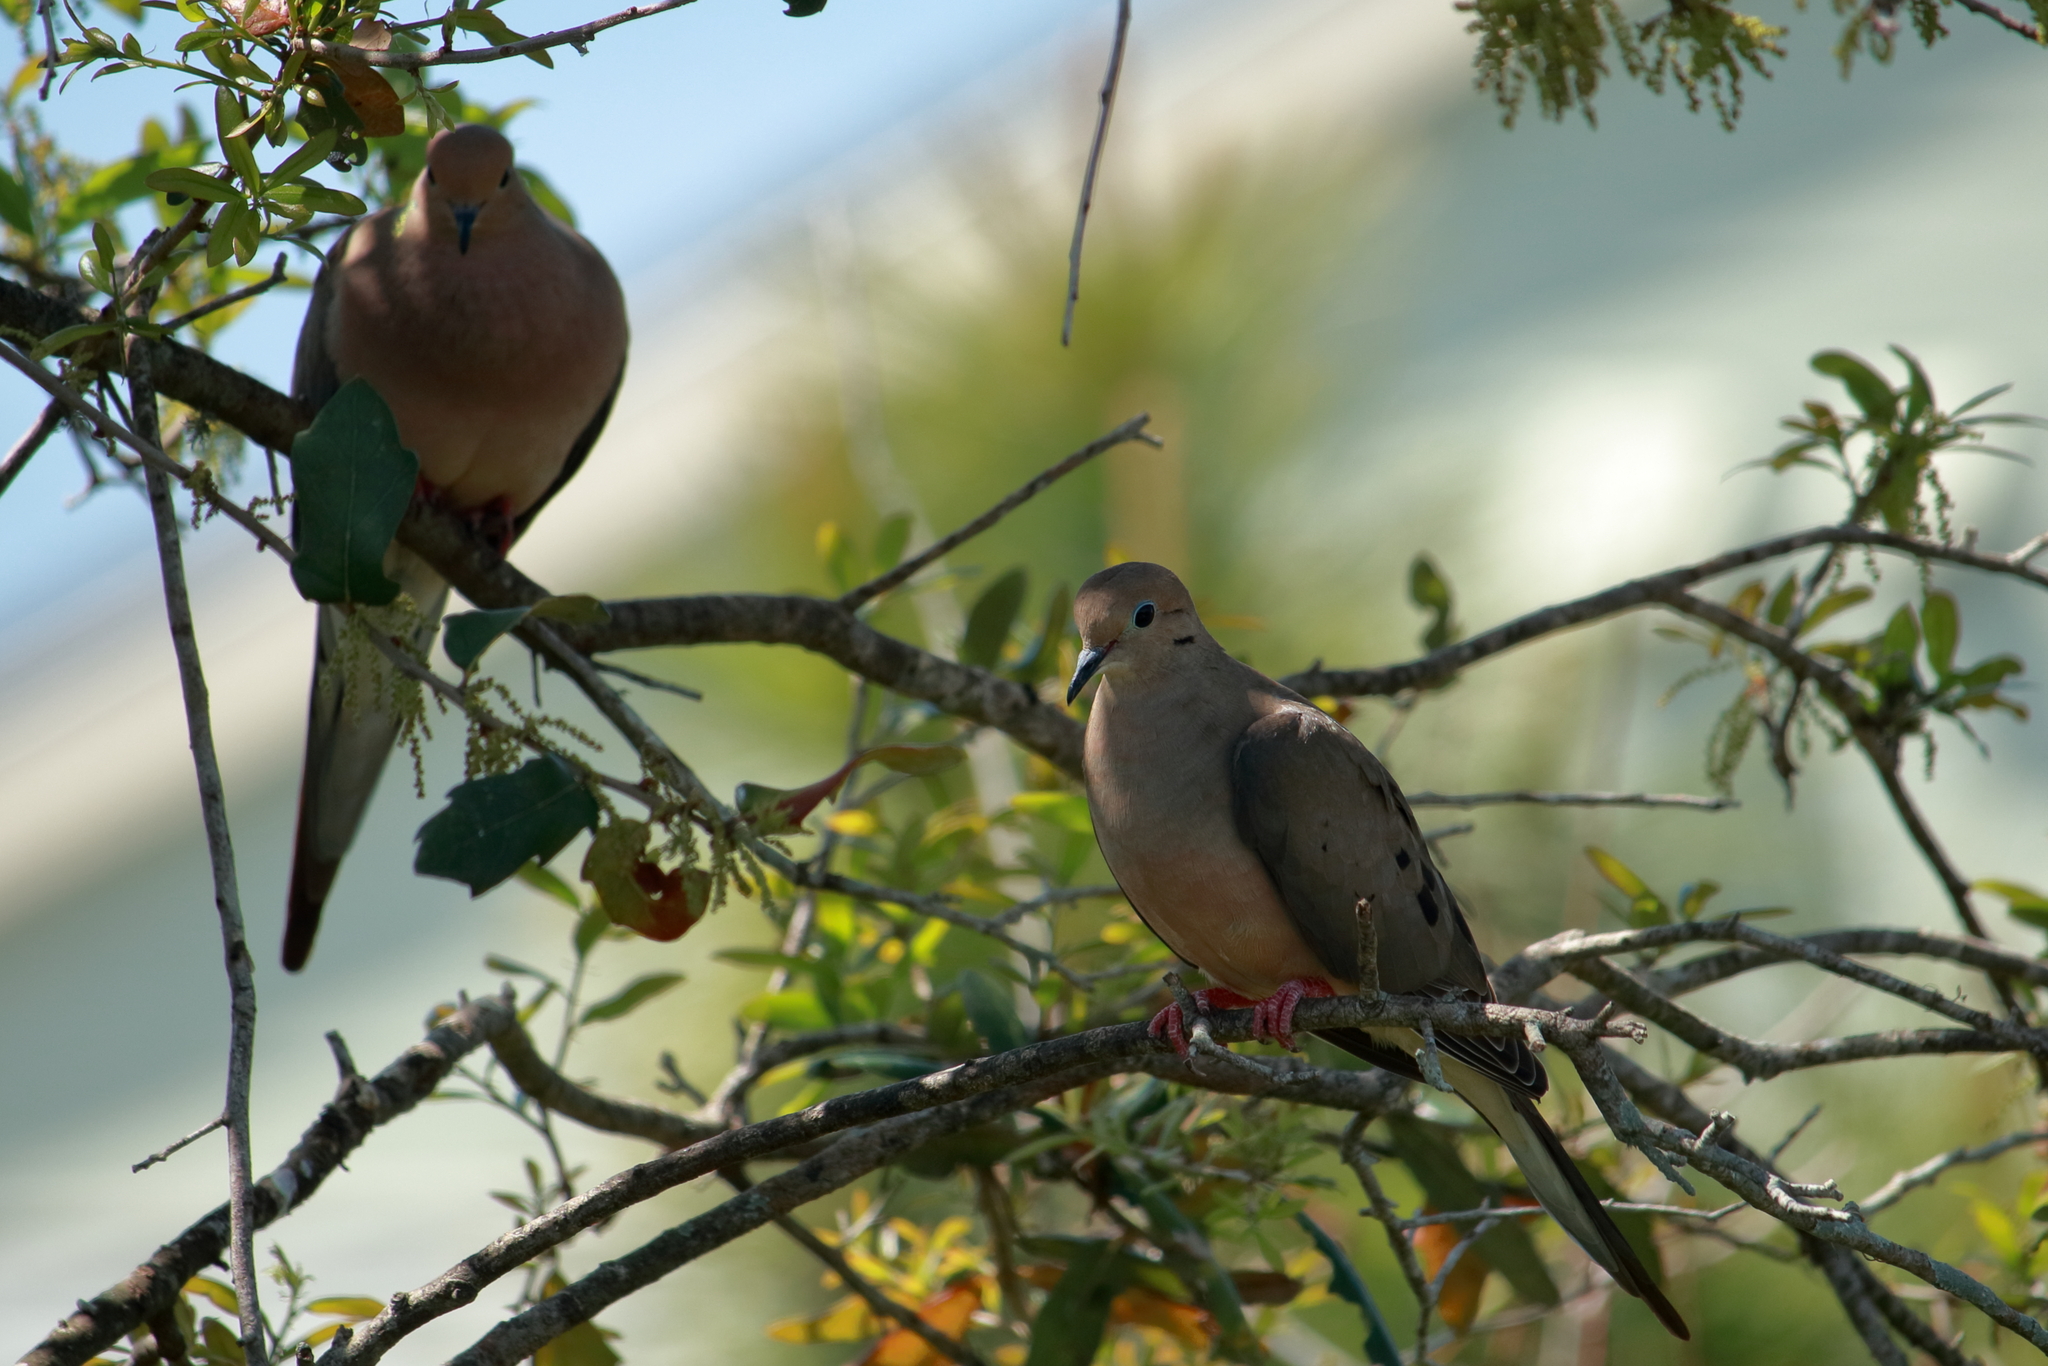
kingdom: Animalia
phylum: Chordata
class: Aves
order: Columbiformes
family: Columbidae
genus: Zenaida
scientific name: Zenaida macroura
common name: Mourning dove
